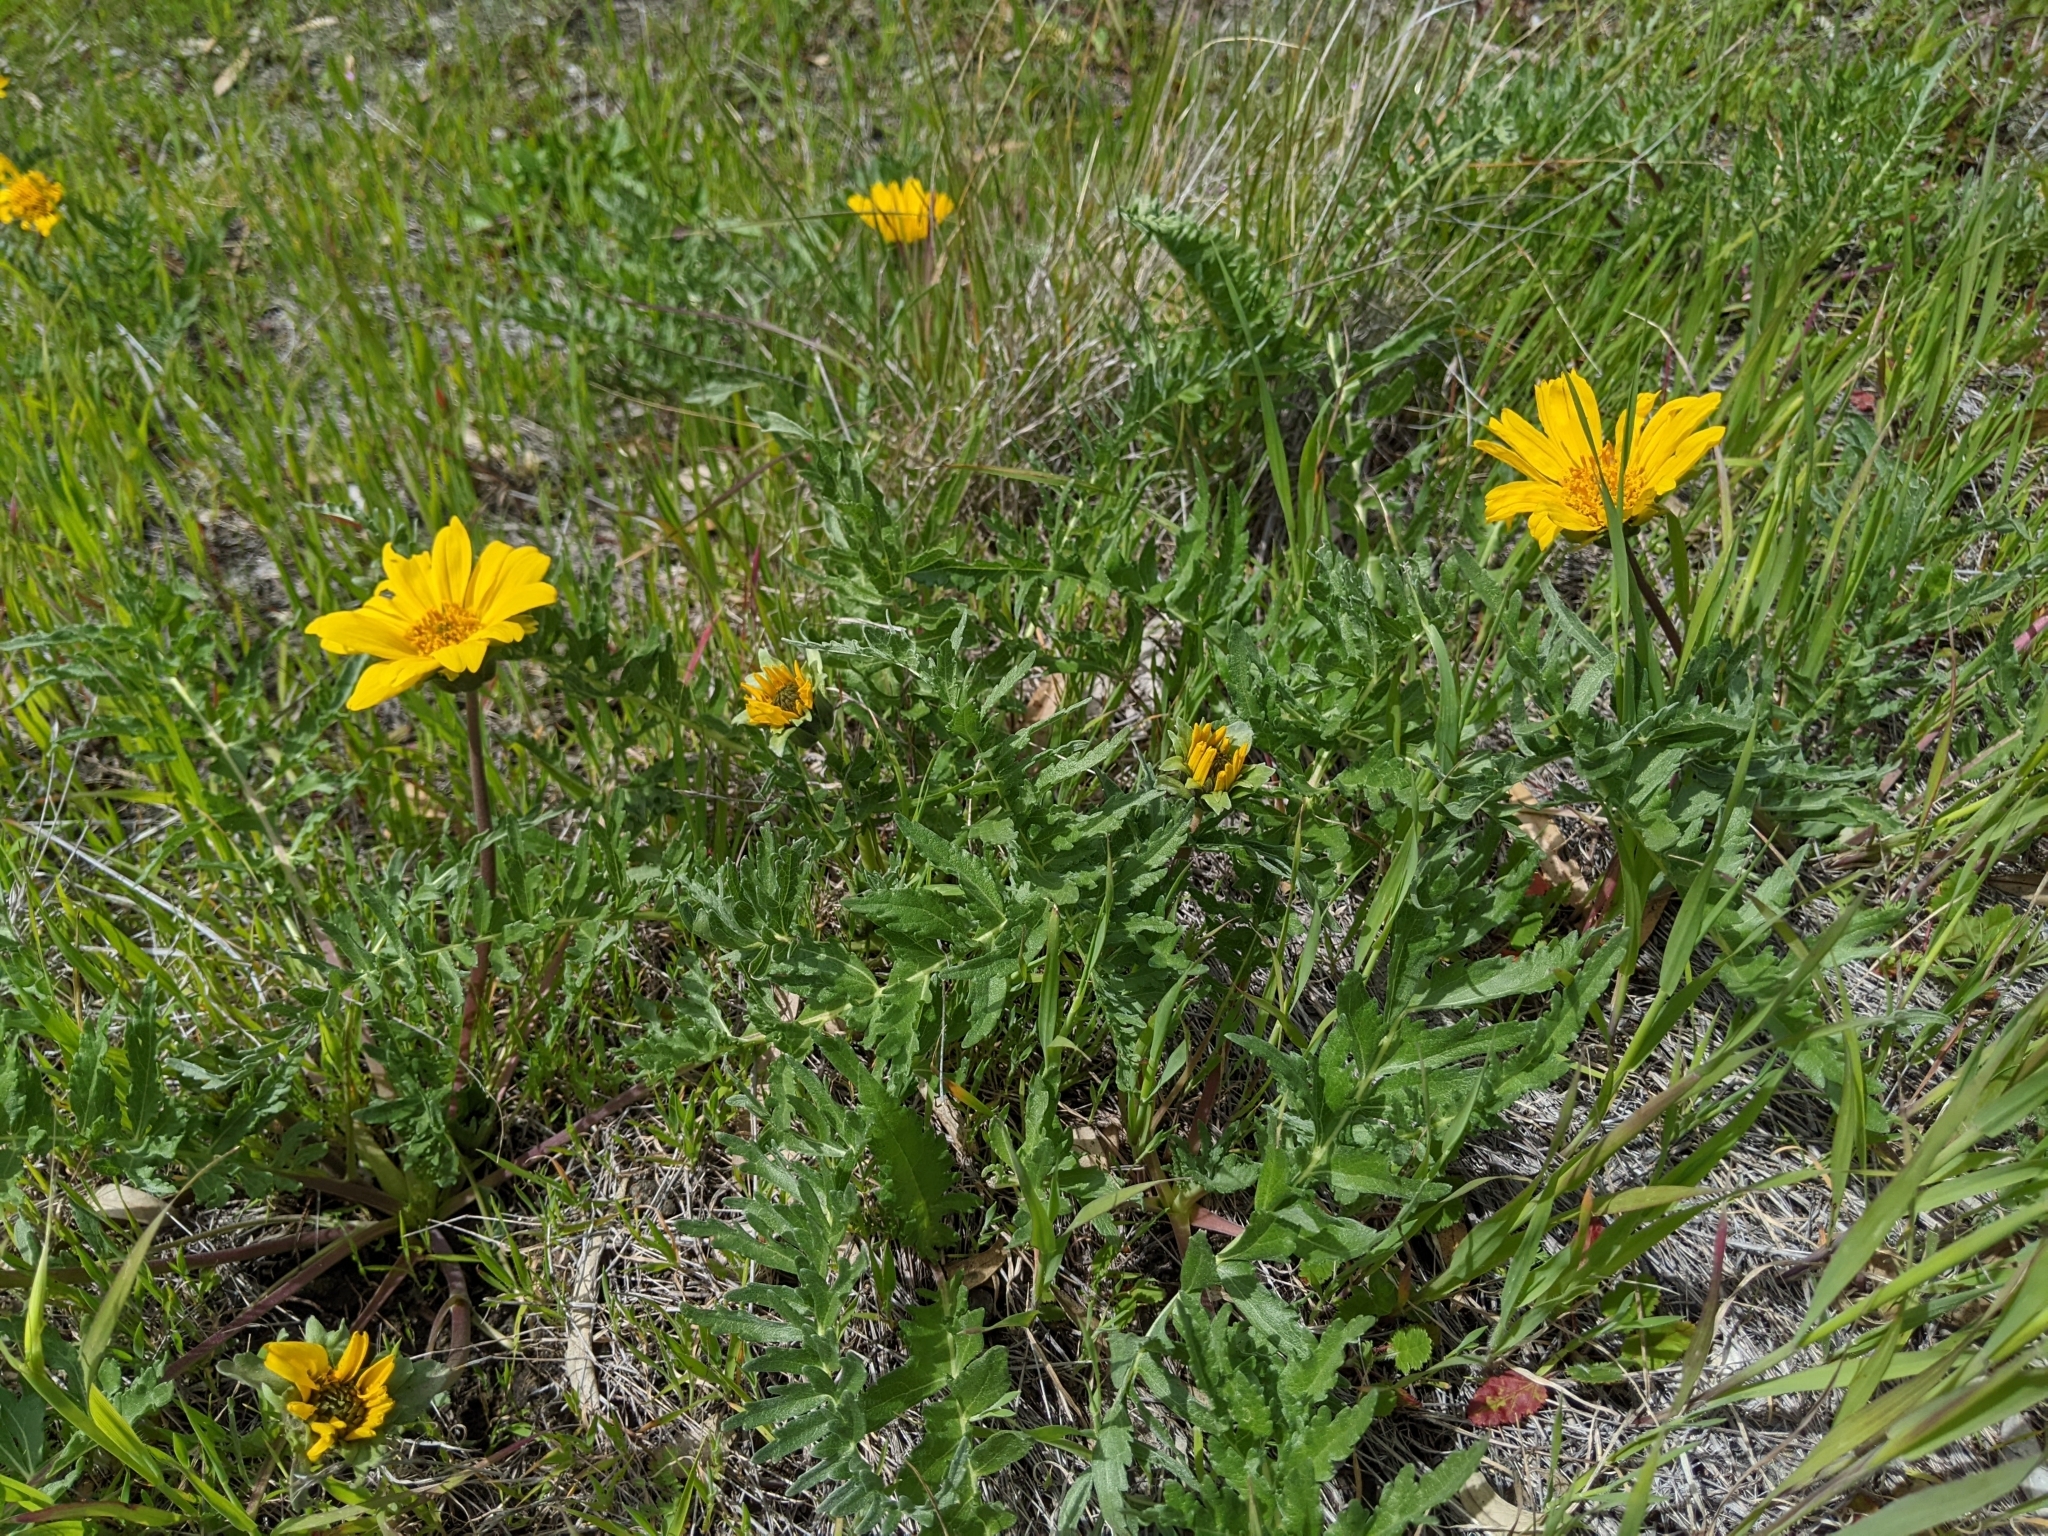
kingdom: Plantae
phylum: Tracheophyta
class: Magnoliopsida
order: Asterales
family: Asteraceae
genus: Balsamorhiza
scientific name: Balsamorhiza macrolepis
